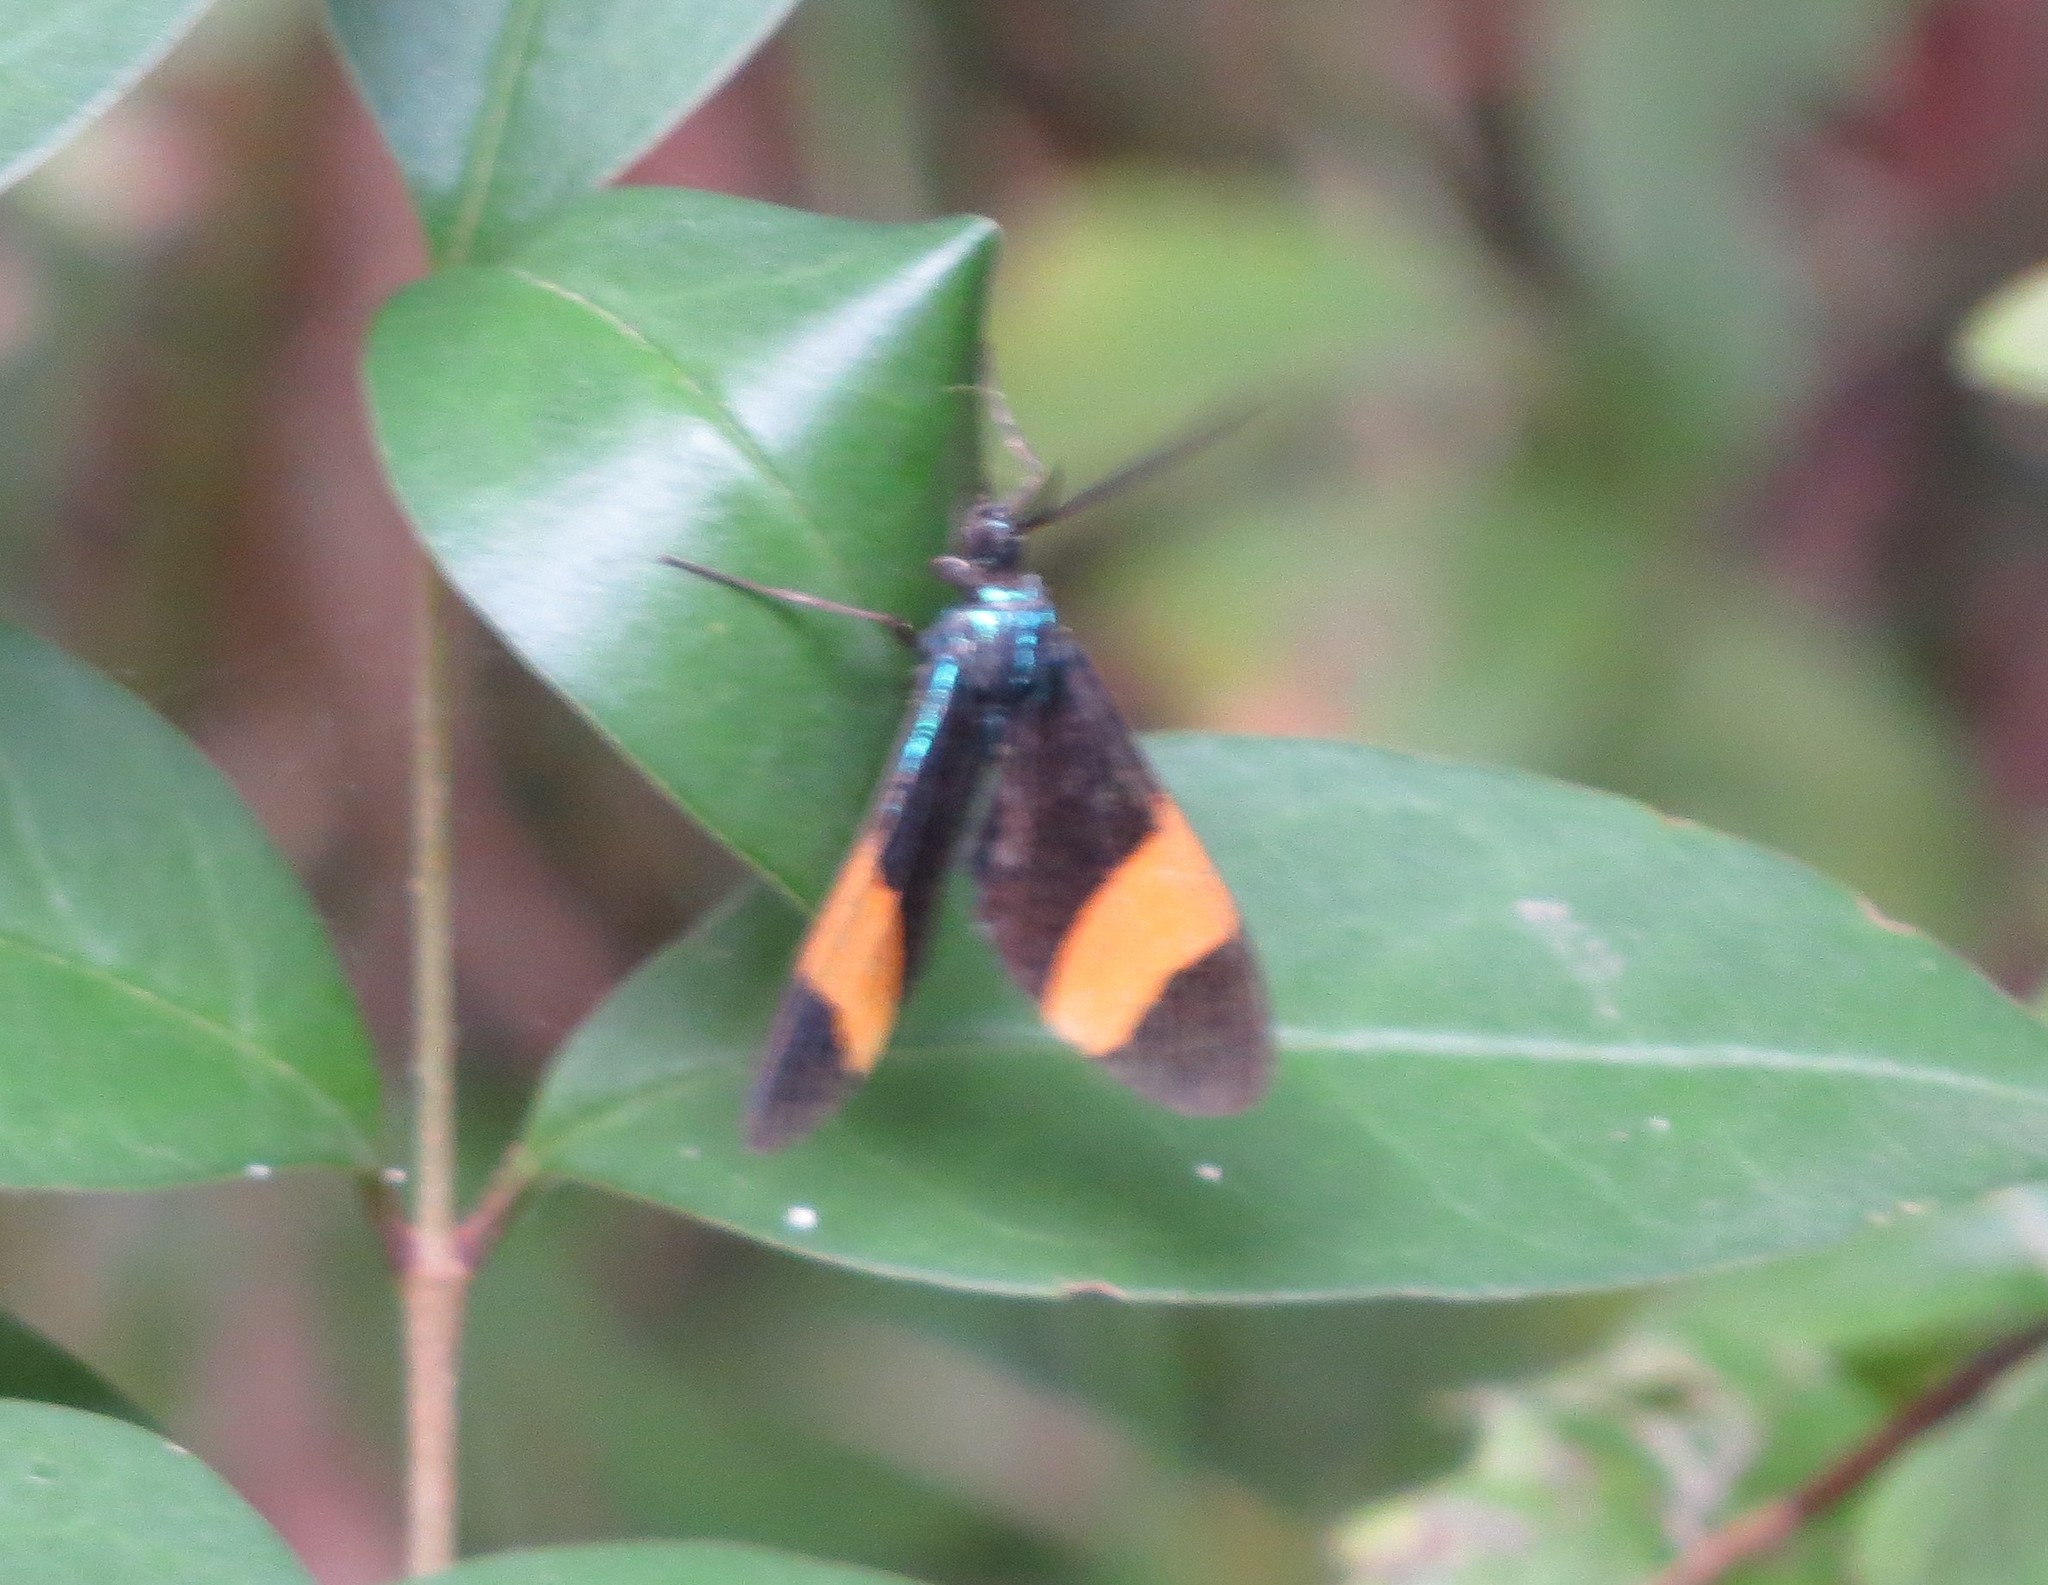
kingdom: Animalia
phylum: Arthropoda
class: Insecta
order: Lepidoptera
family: Erebidae
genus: Cyanopepla
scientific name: Cyanopepla similis
